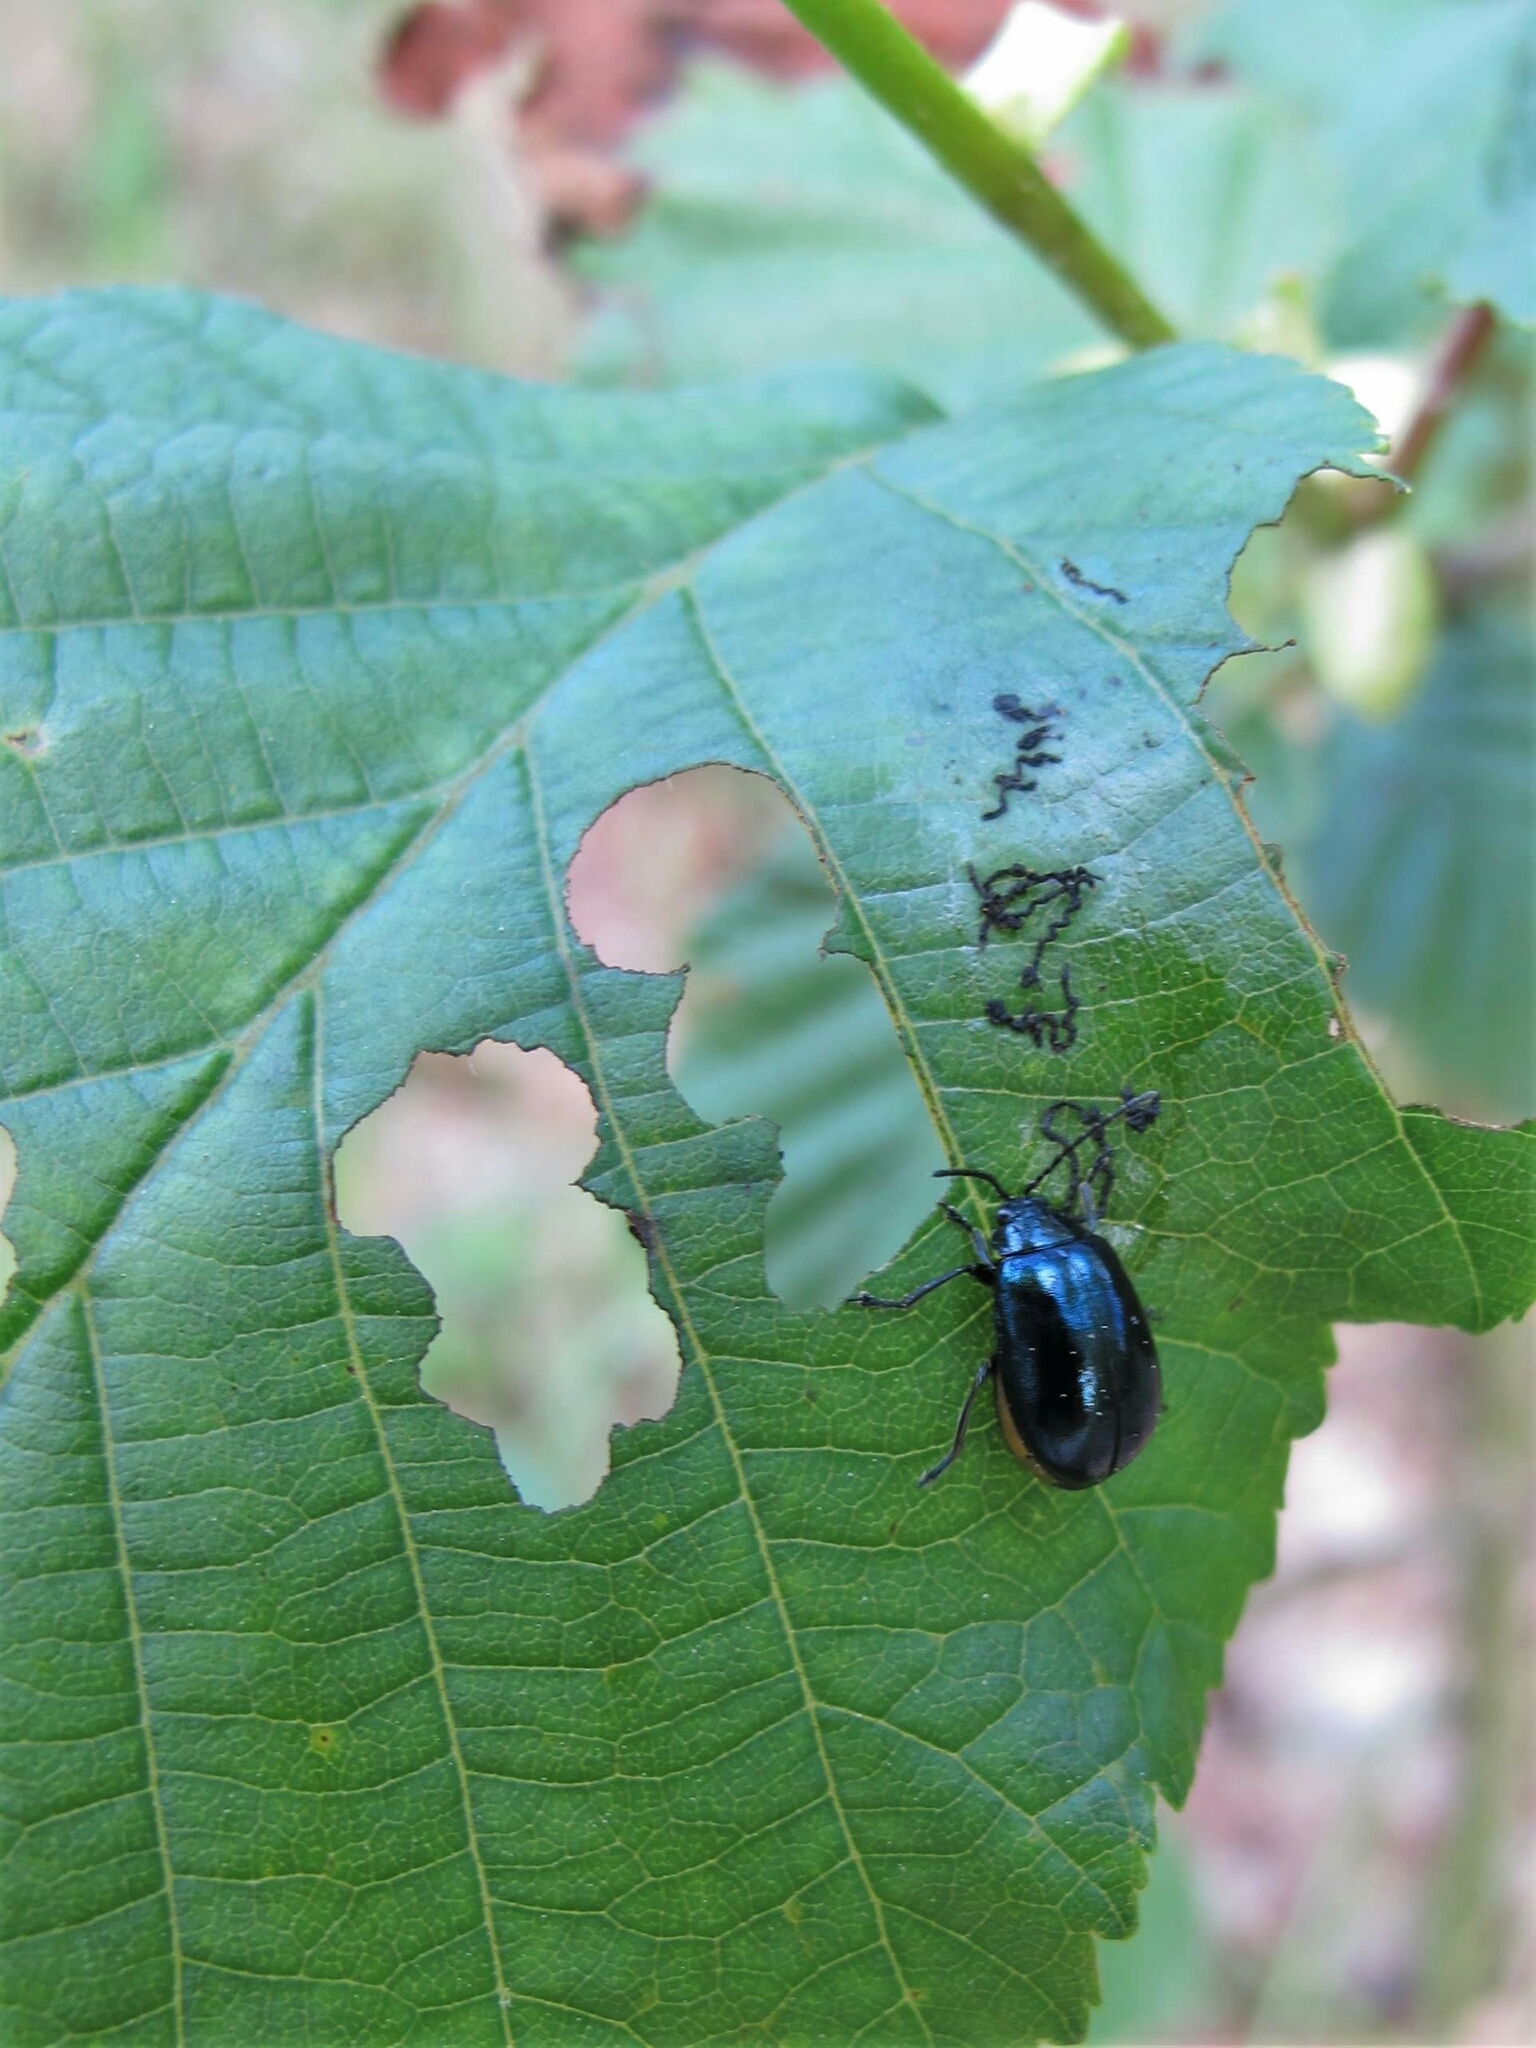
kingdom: Animalia
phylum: Arthropoda
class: Insecta
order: Coleoptera
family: Chrysomelidae
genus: Agelastica
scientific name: Agelastica alni
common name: Alder leaf beetle
